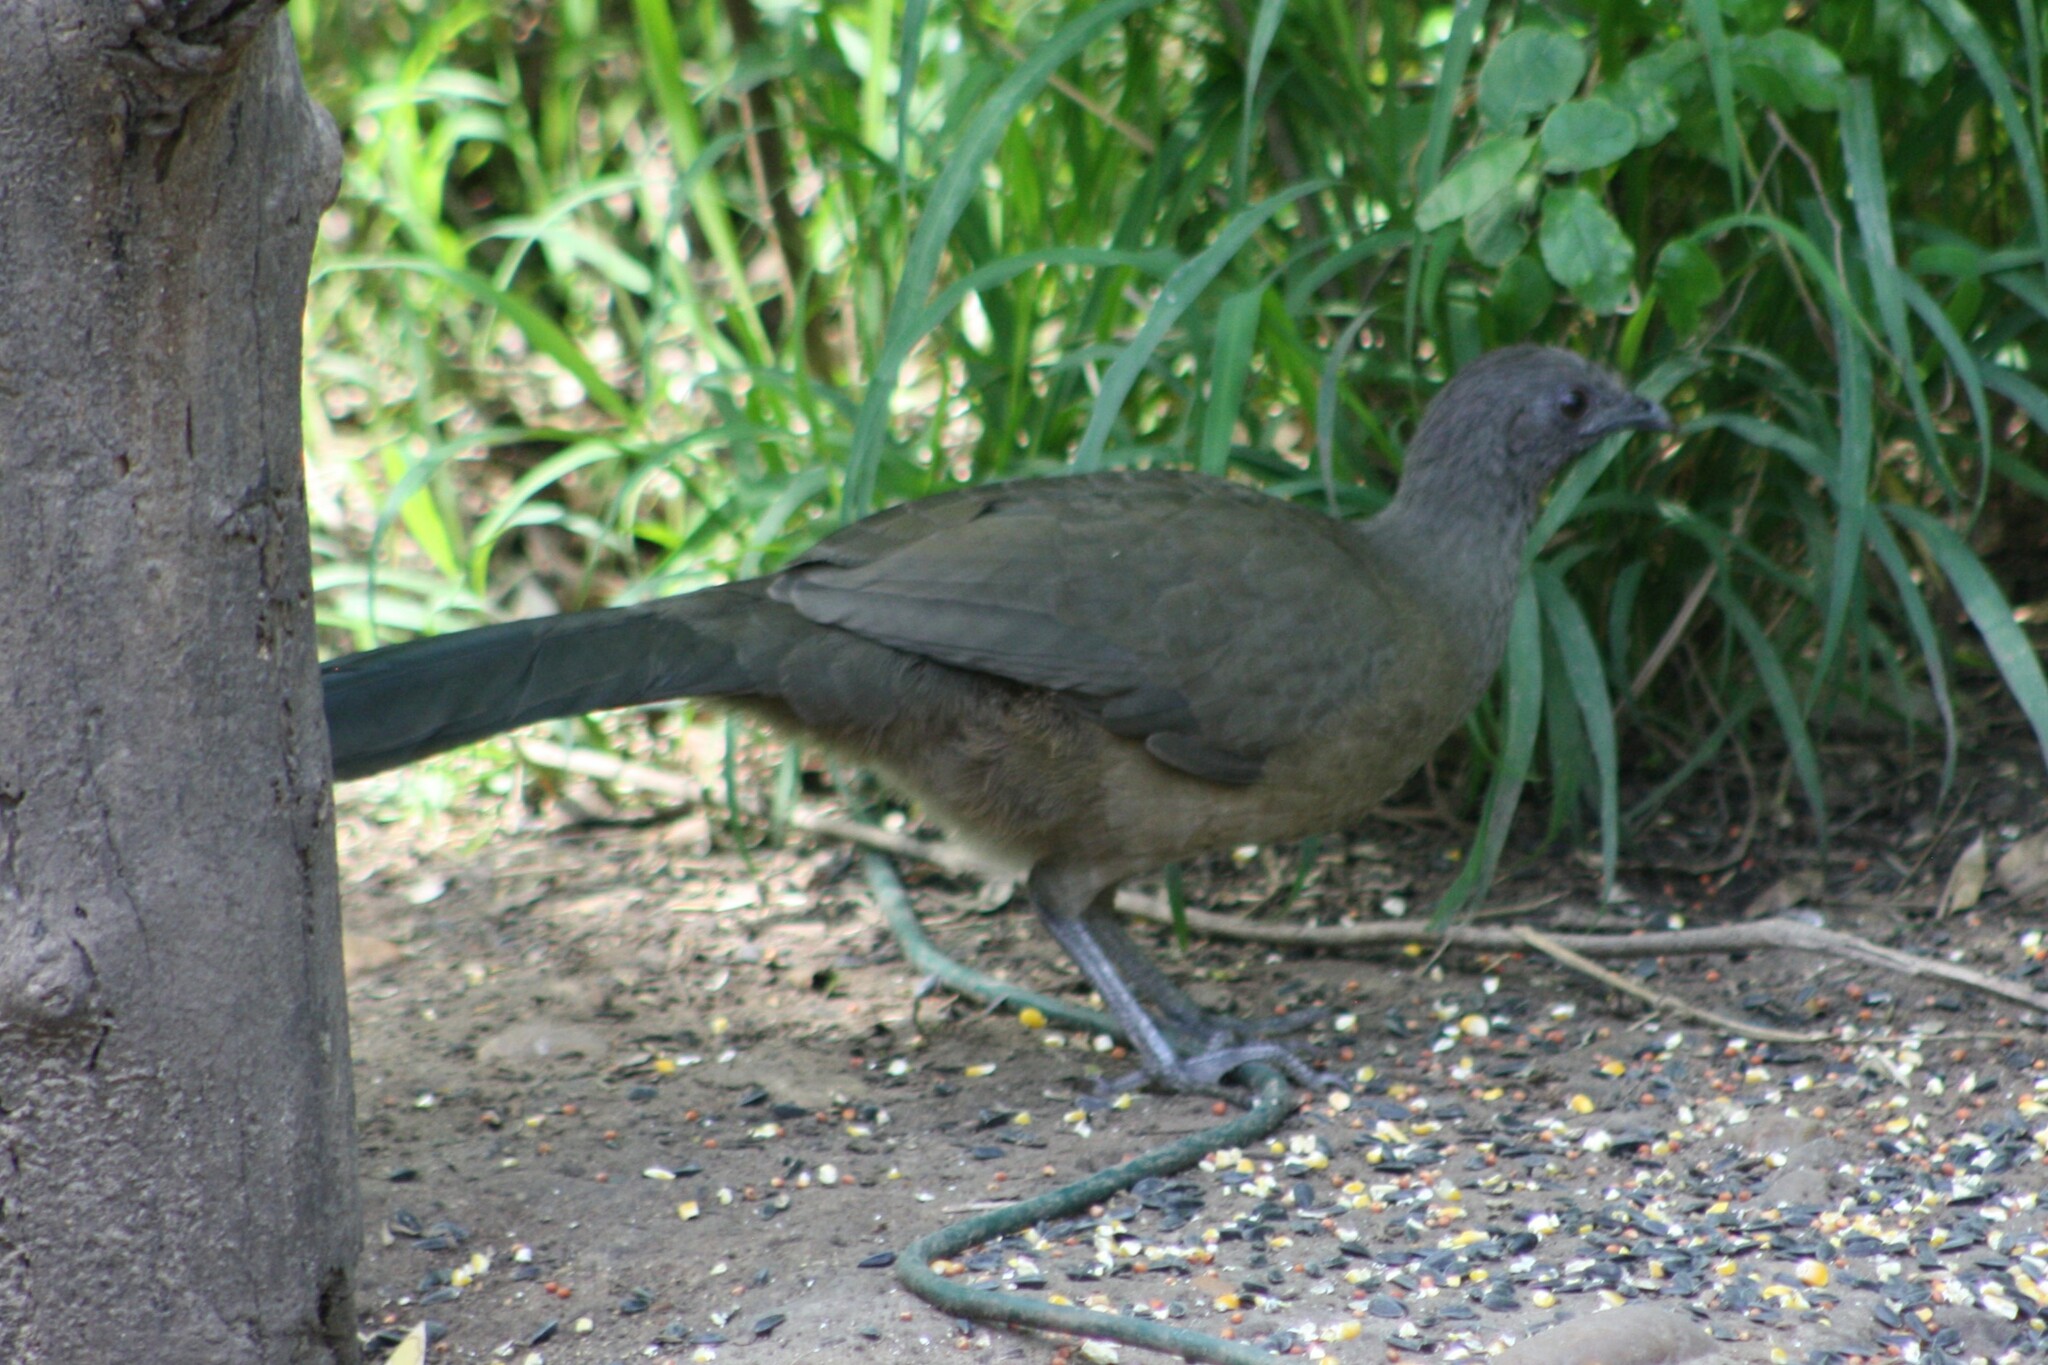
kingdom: Animalia
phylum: Chordata
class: Aves
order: Galliformes
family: Cracidae
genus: Ortalis
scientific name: Ortalis vetula
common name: Plain chachalaca
